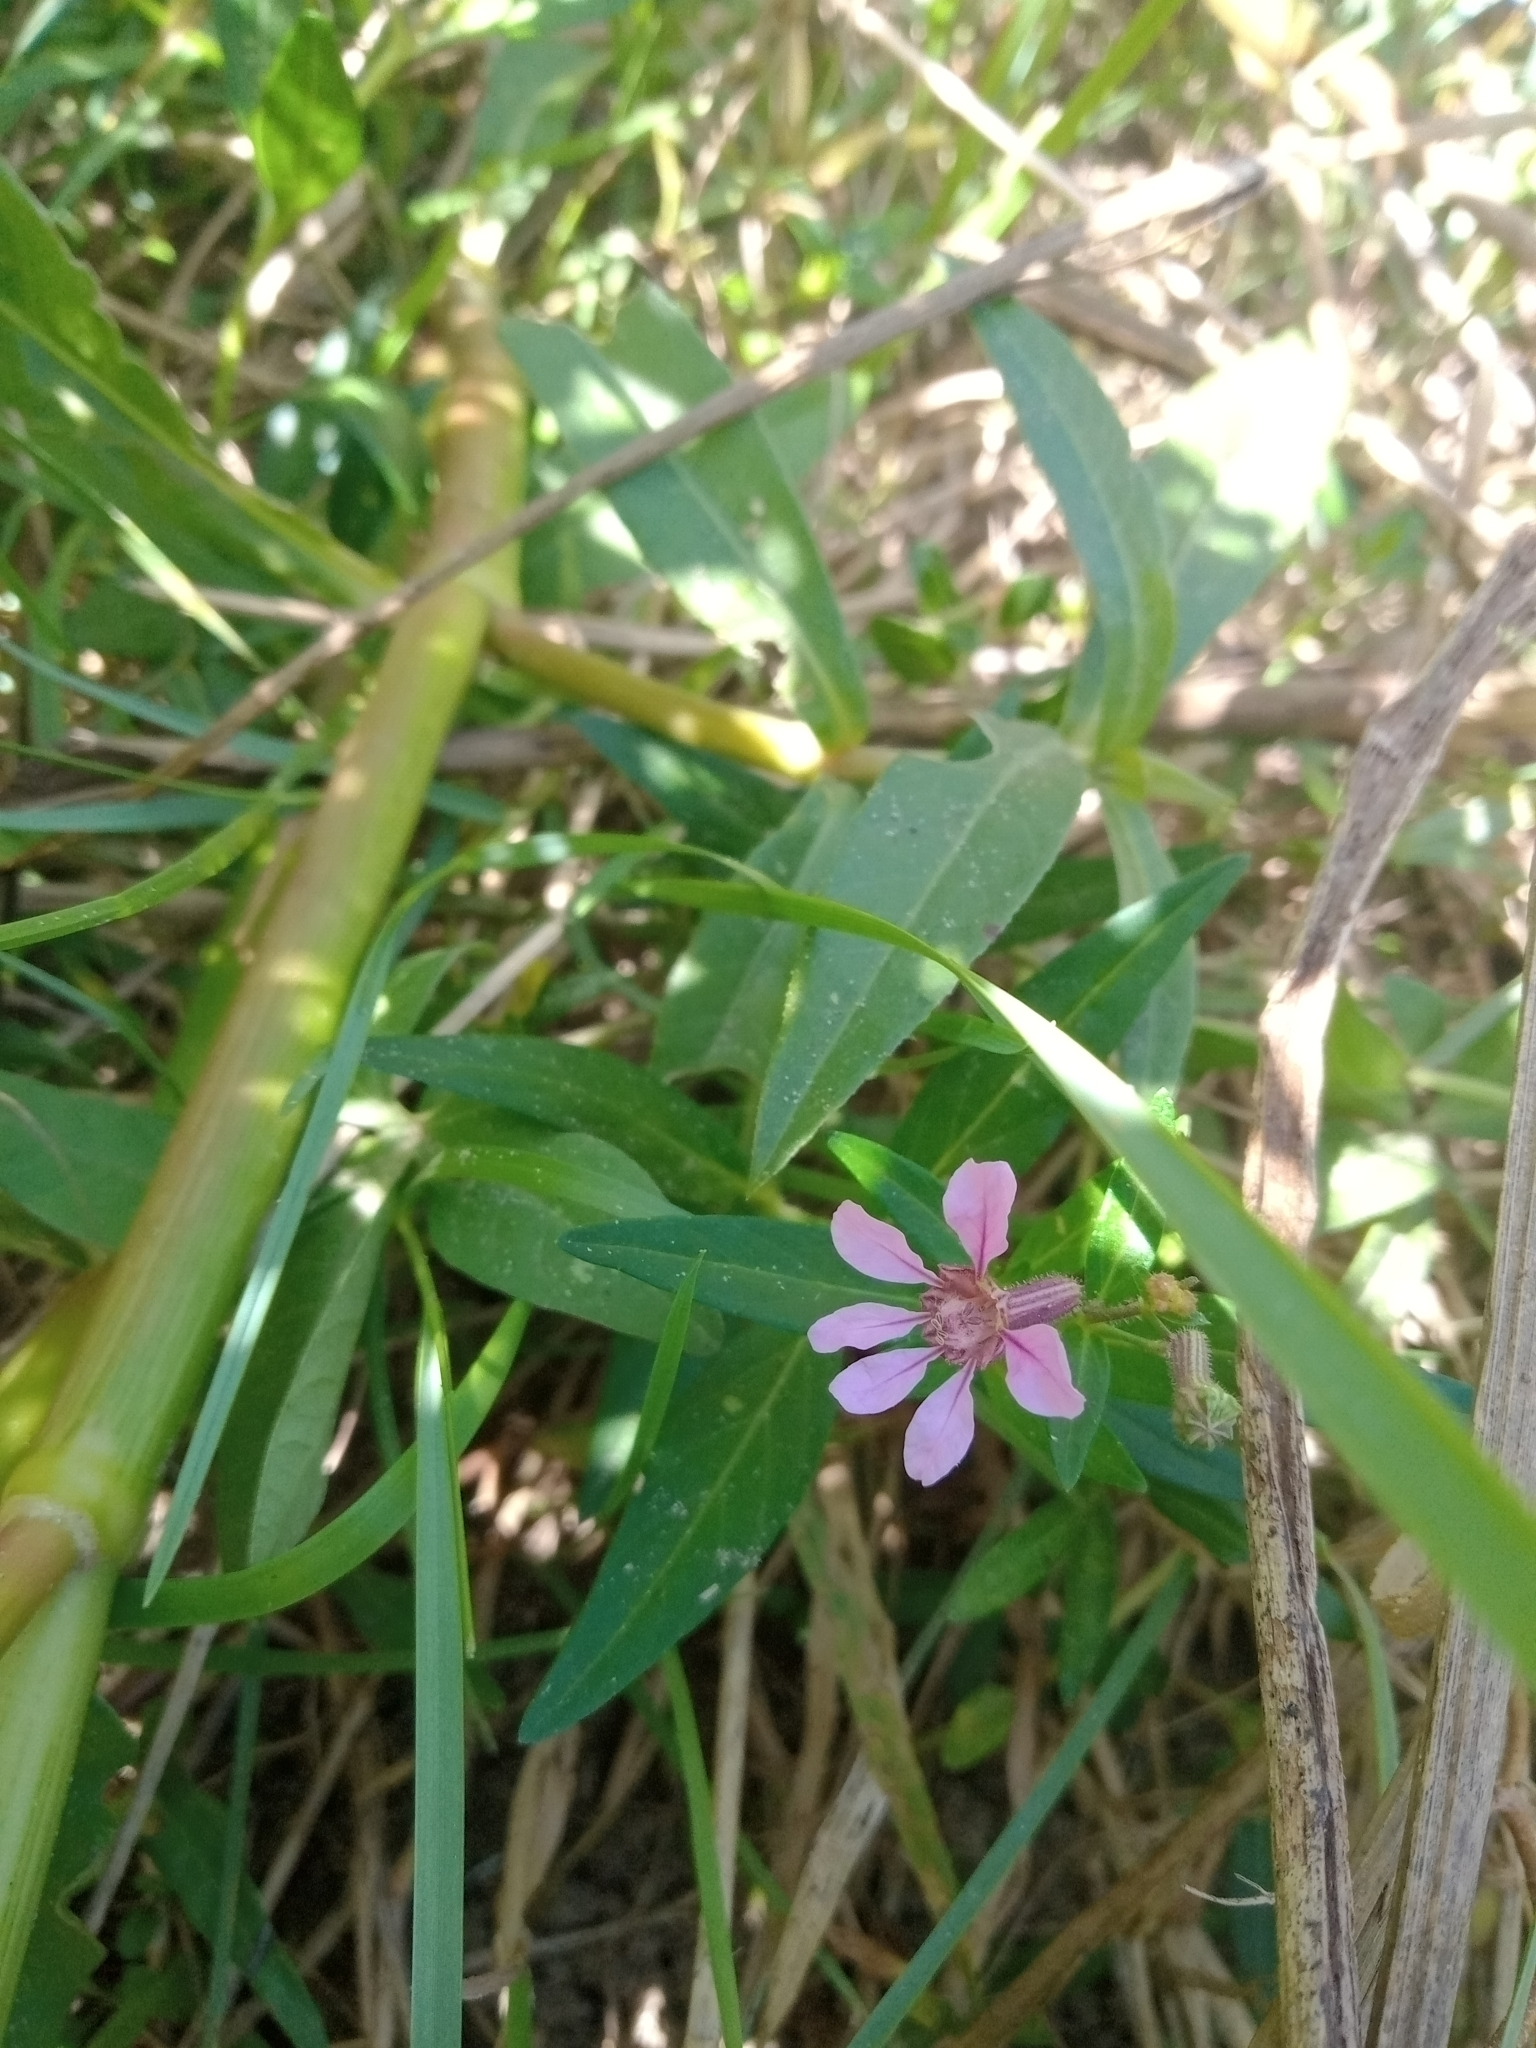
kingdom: Plantae
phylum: Tracheophyta
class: Magnoliopsida
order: Myrtales
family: Lythraceae
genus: Cuphea
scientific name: Cuphea fruticosa
